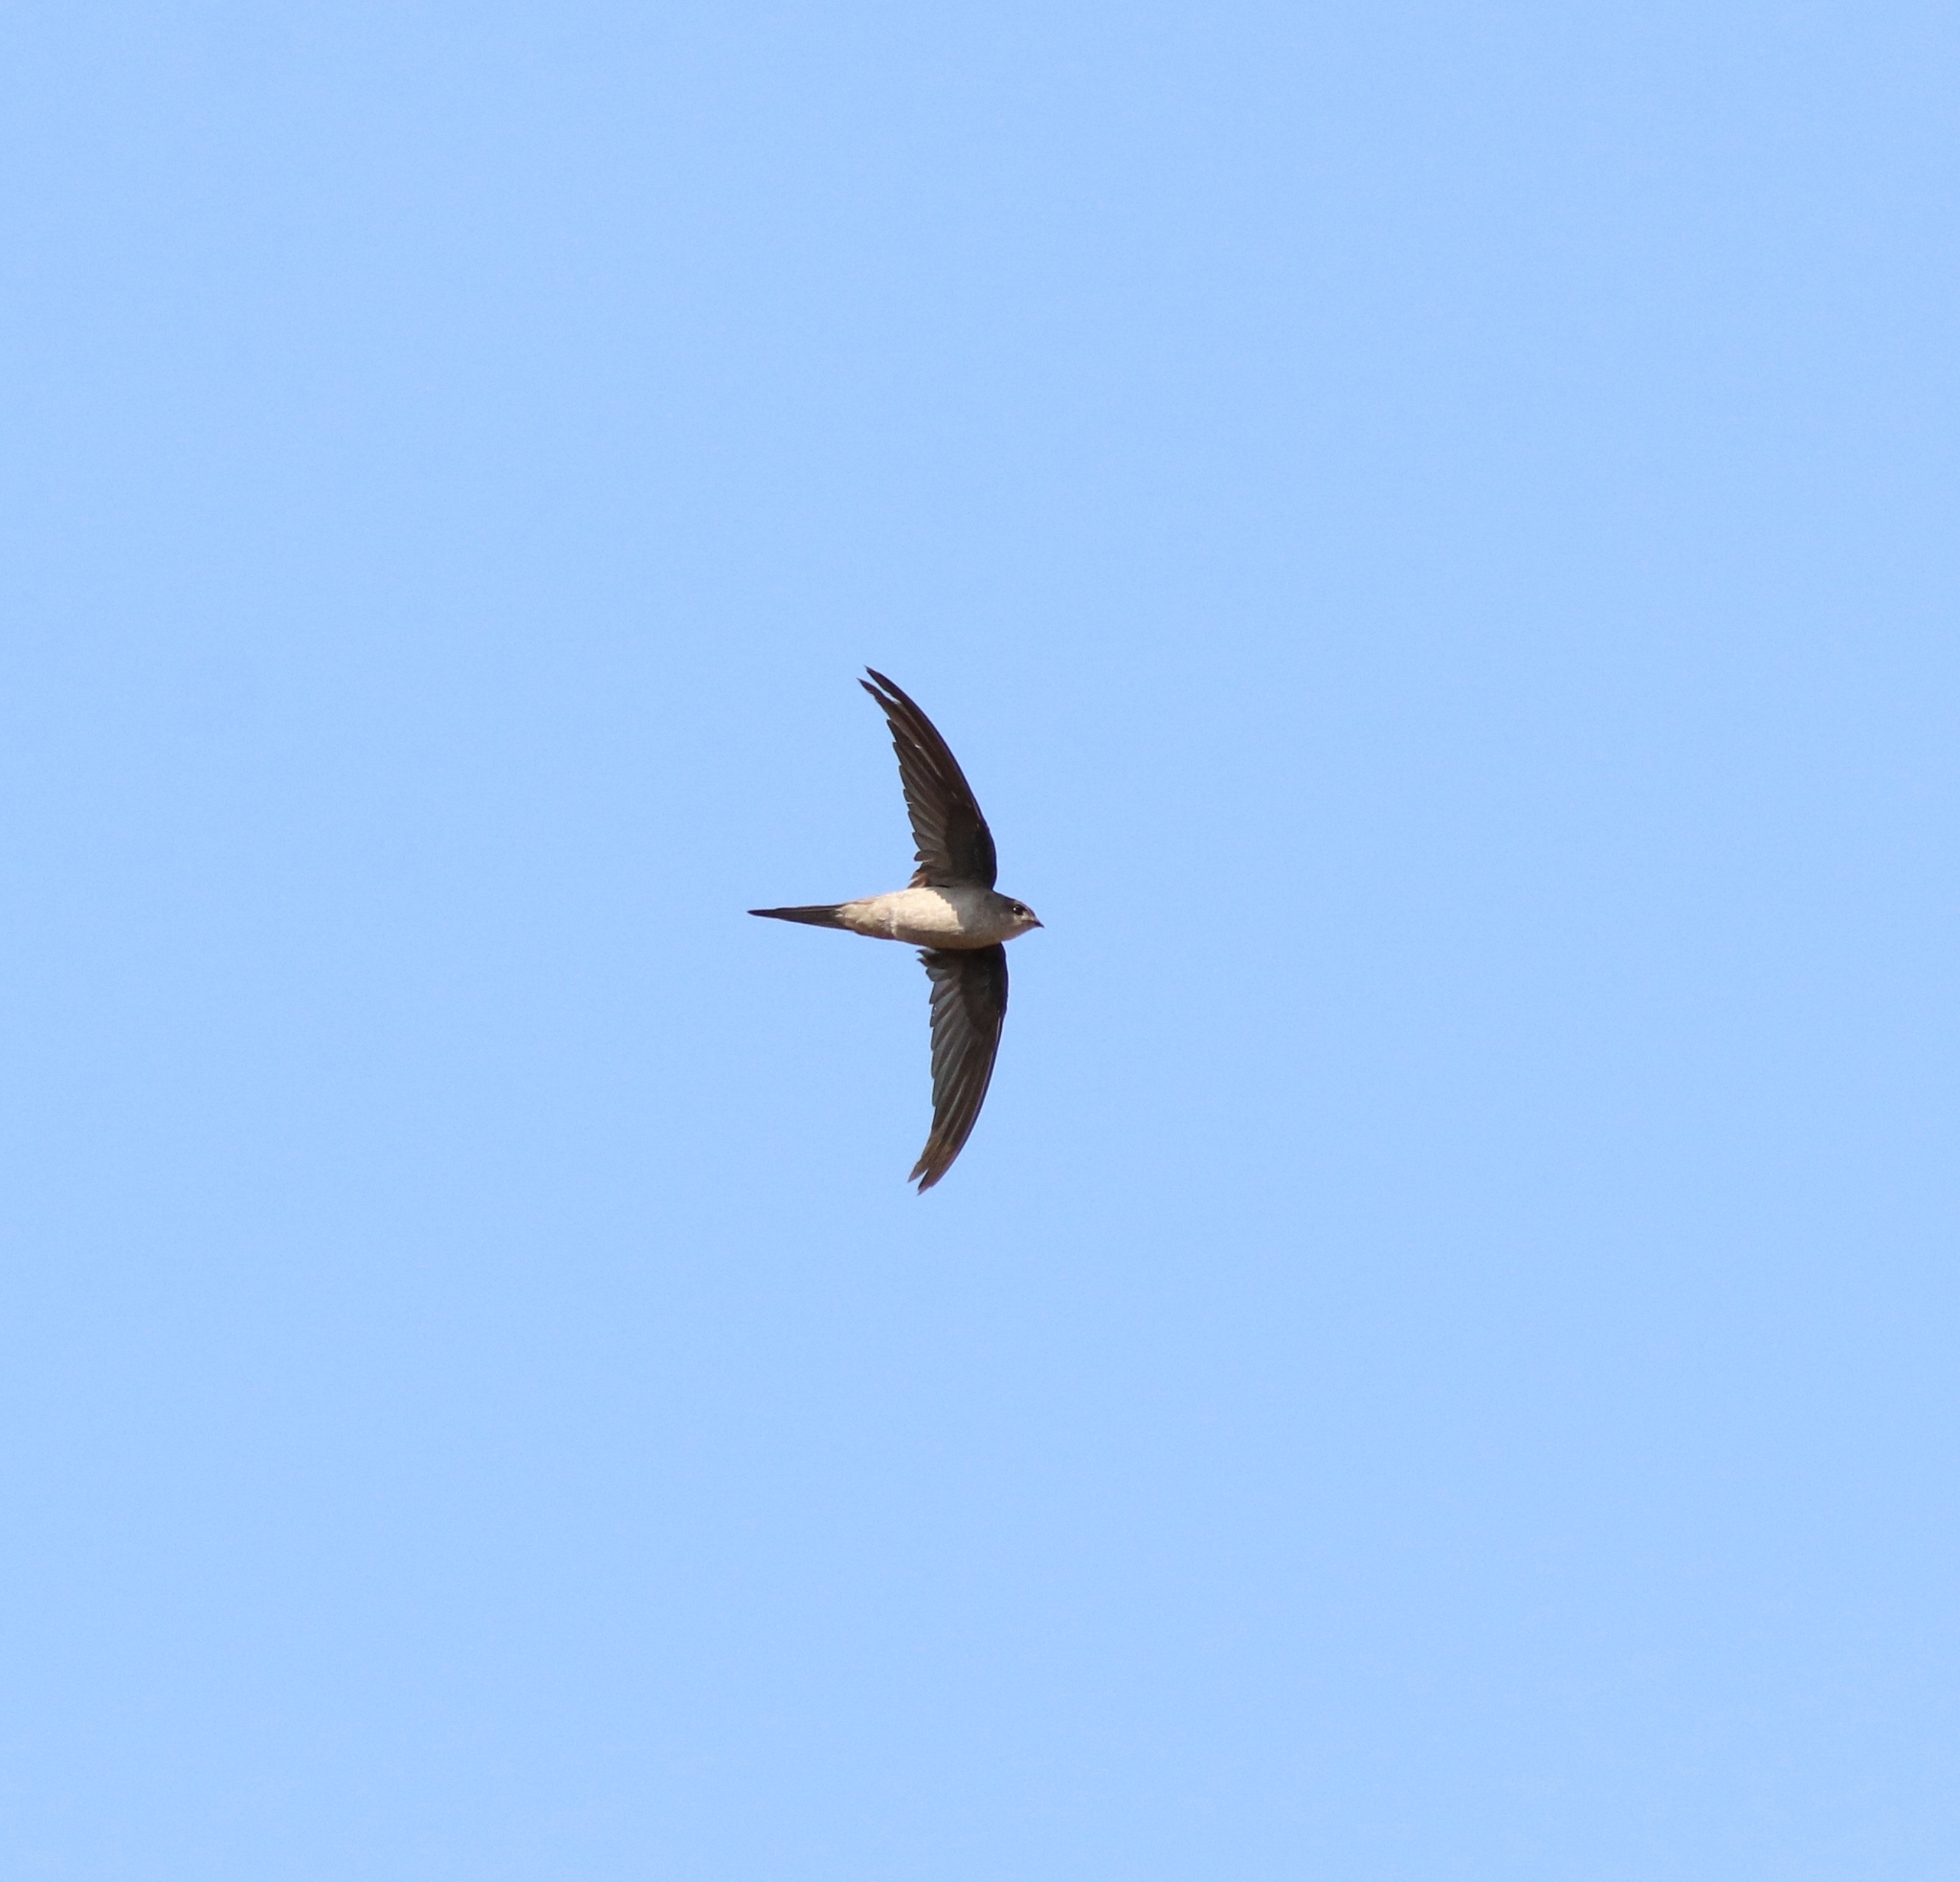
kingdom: Animalia
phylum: Chordata
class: Aves
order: Apodiformes
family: Apodidae
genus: Cypsiurus
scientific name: Cypsiurus balasiensis
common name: Asian palm swift
